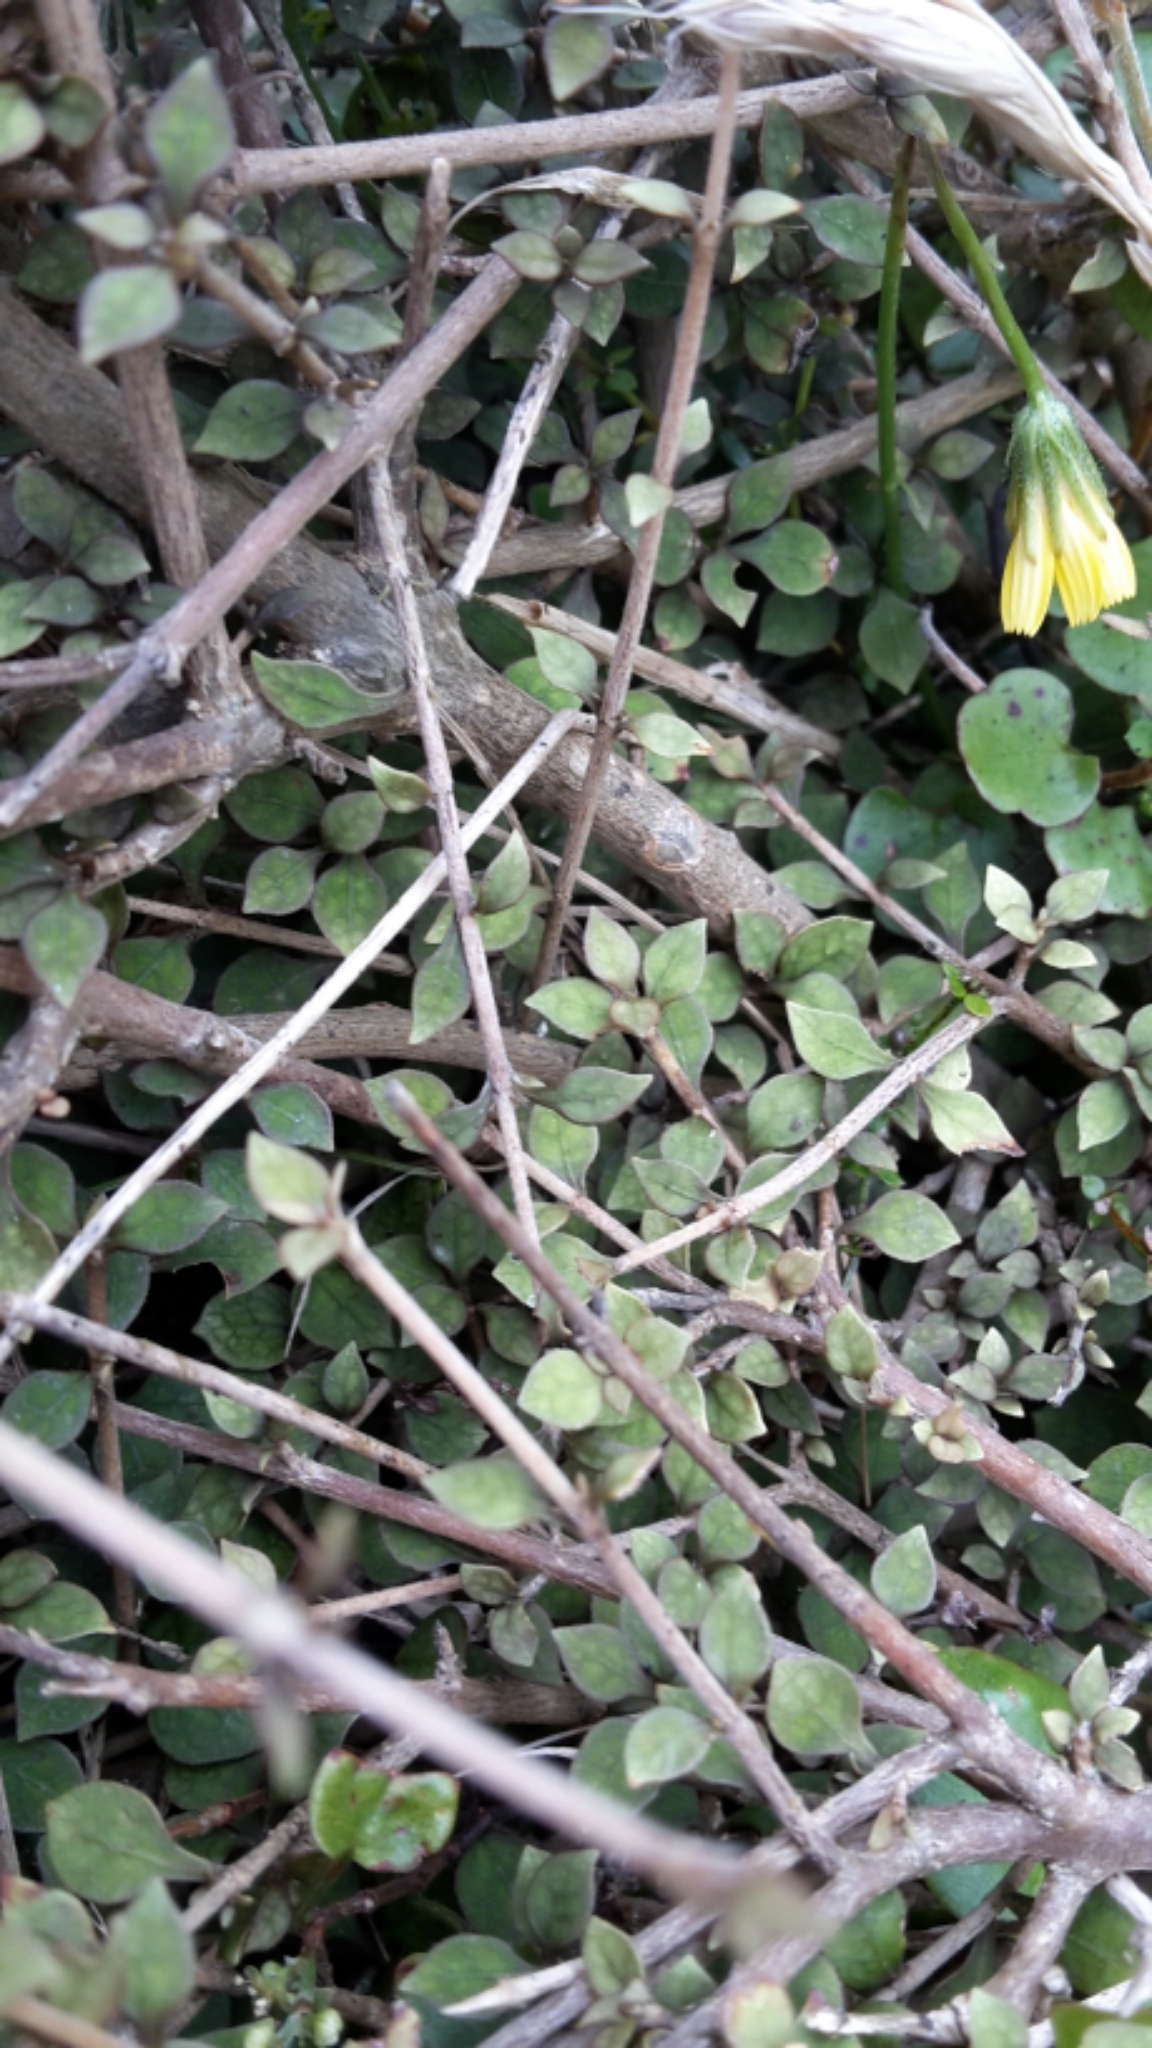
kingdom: Plantae
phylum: Tracheophyta
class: Magnoliopsida
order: Gentianales
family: Rubiaceae
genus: Coprosma
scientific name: Coprosma areolata
